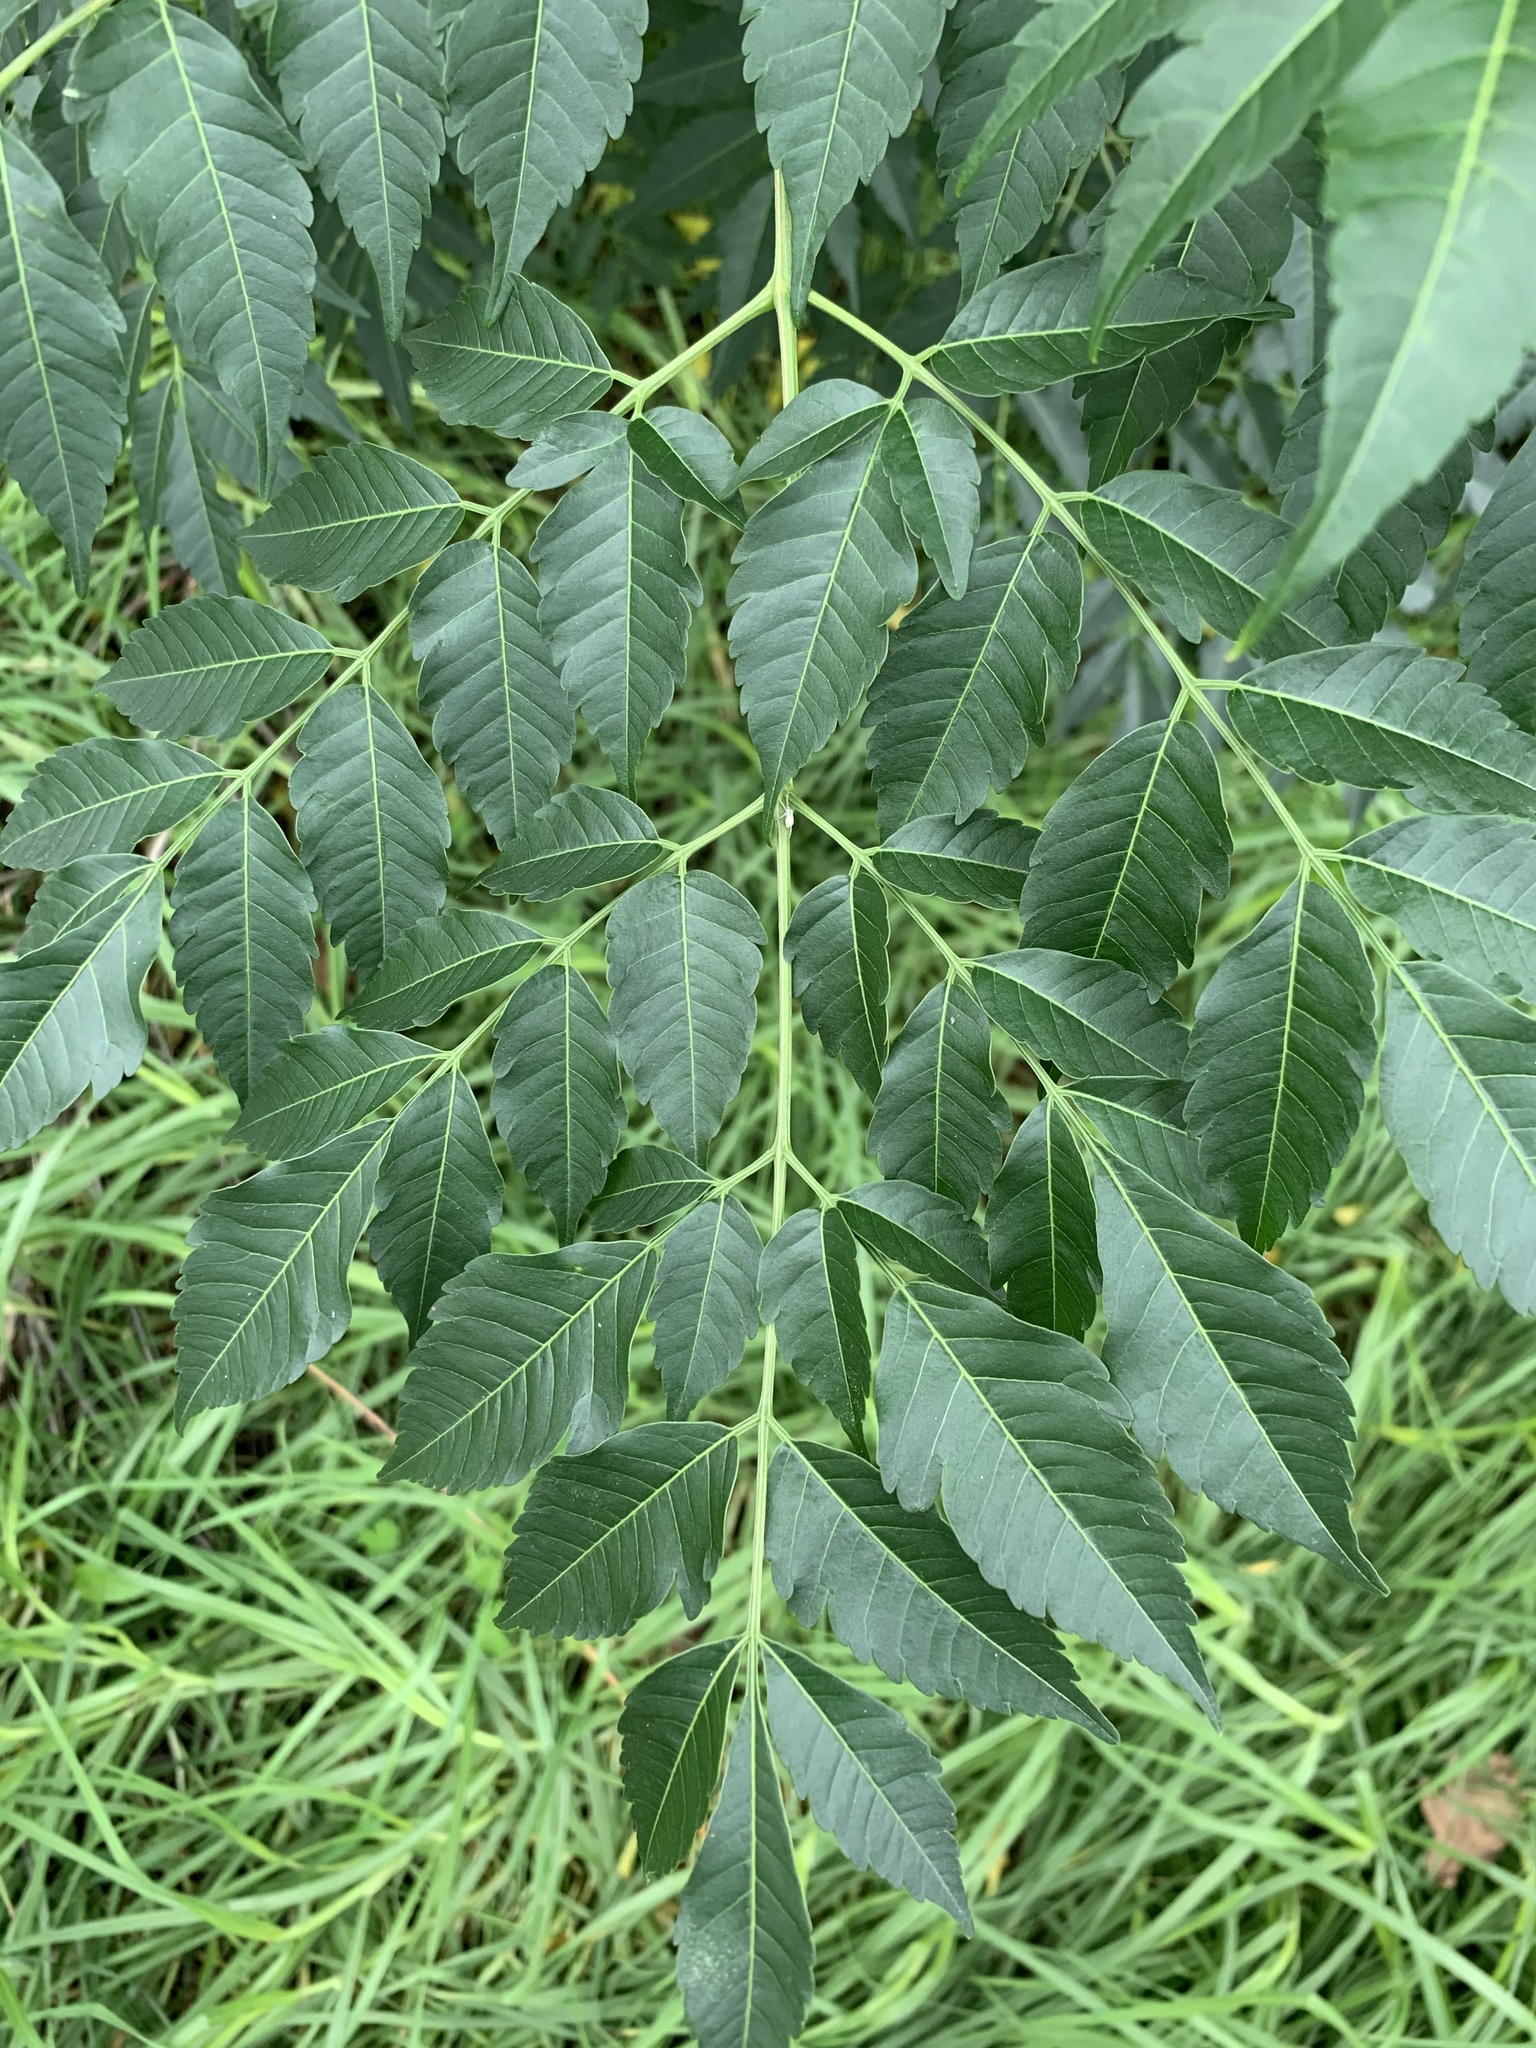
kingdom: Plantae
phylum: Tracheophyta
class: Magnoliopsida
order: Sapindales
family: Meliaceae
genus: Melia
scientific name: Melia azedarach
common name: Chinaberrytree
